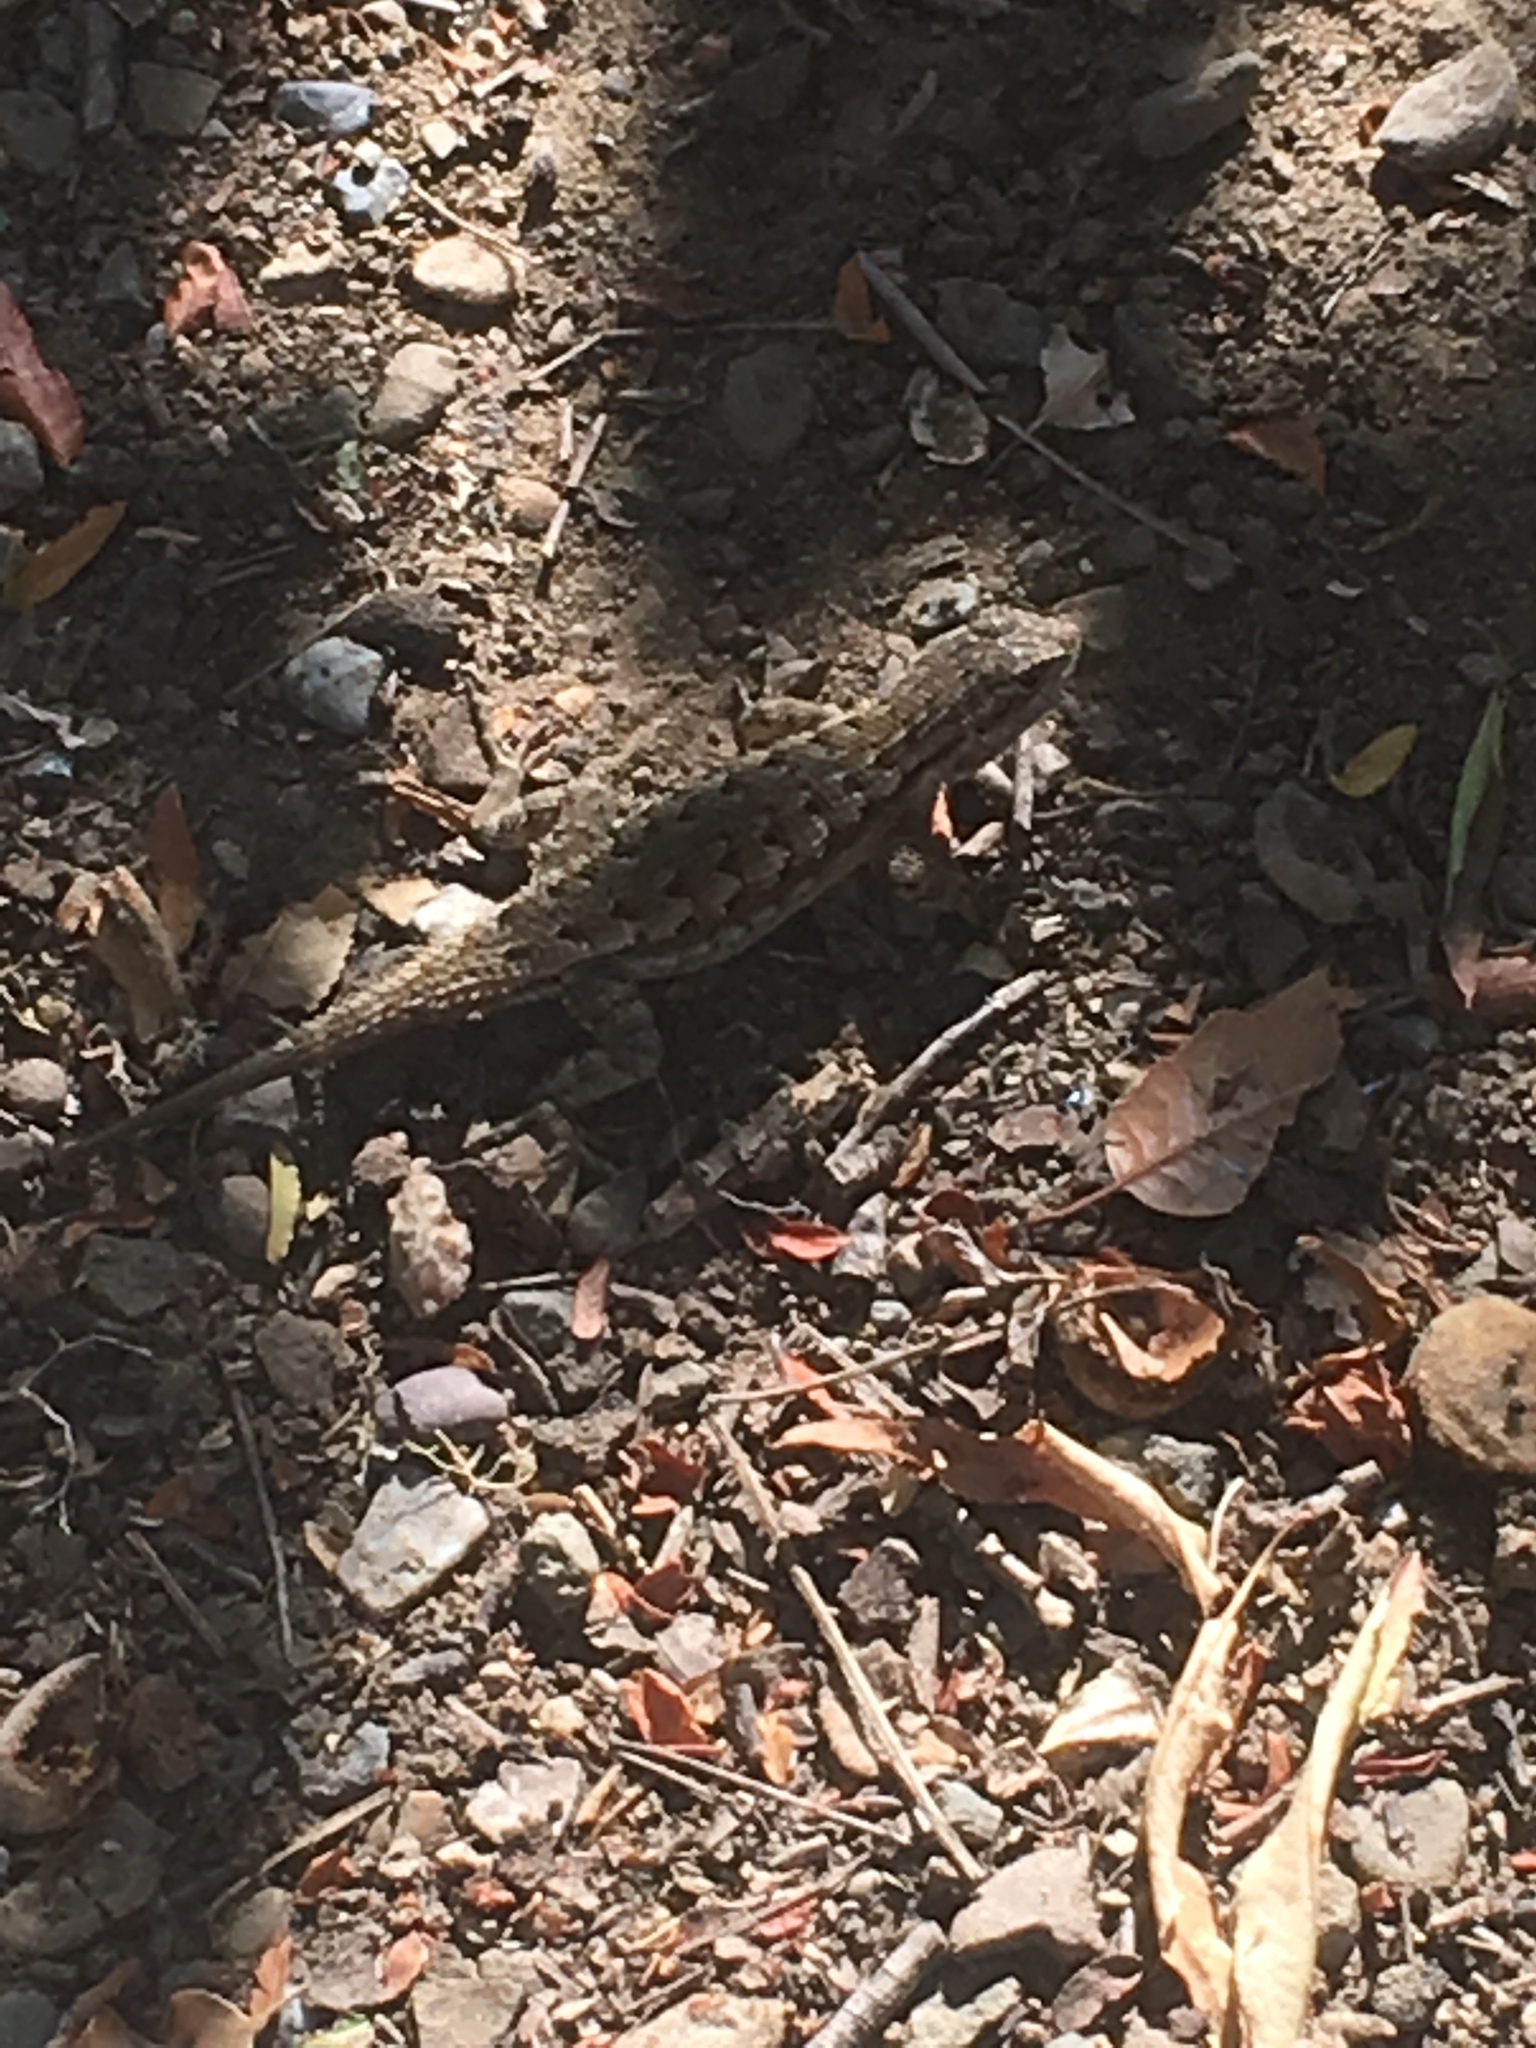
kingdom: Animalia
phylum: Chordata
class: Squamata
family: Phrynosomatidae
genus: Sceloporus
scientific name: Sceloporus occidentalis
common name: Western fence lizard
